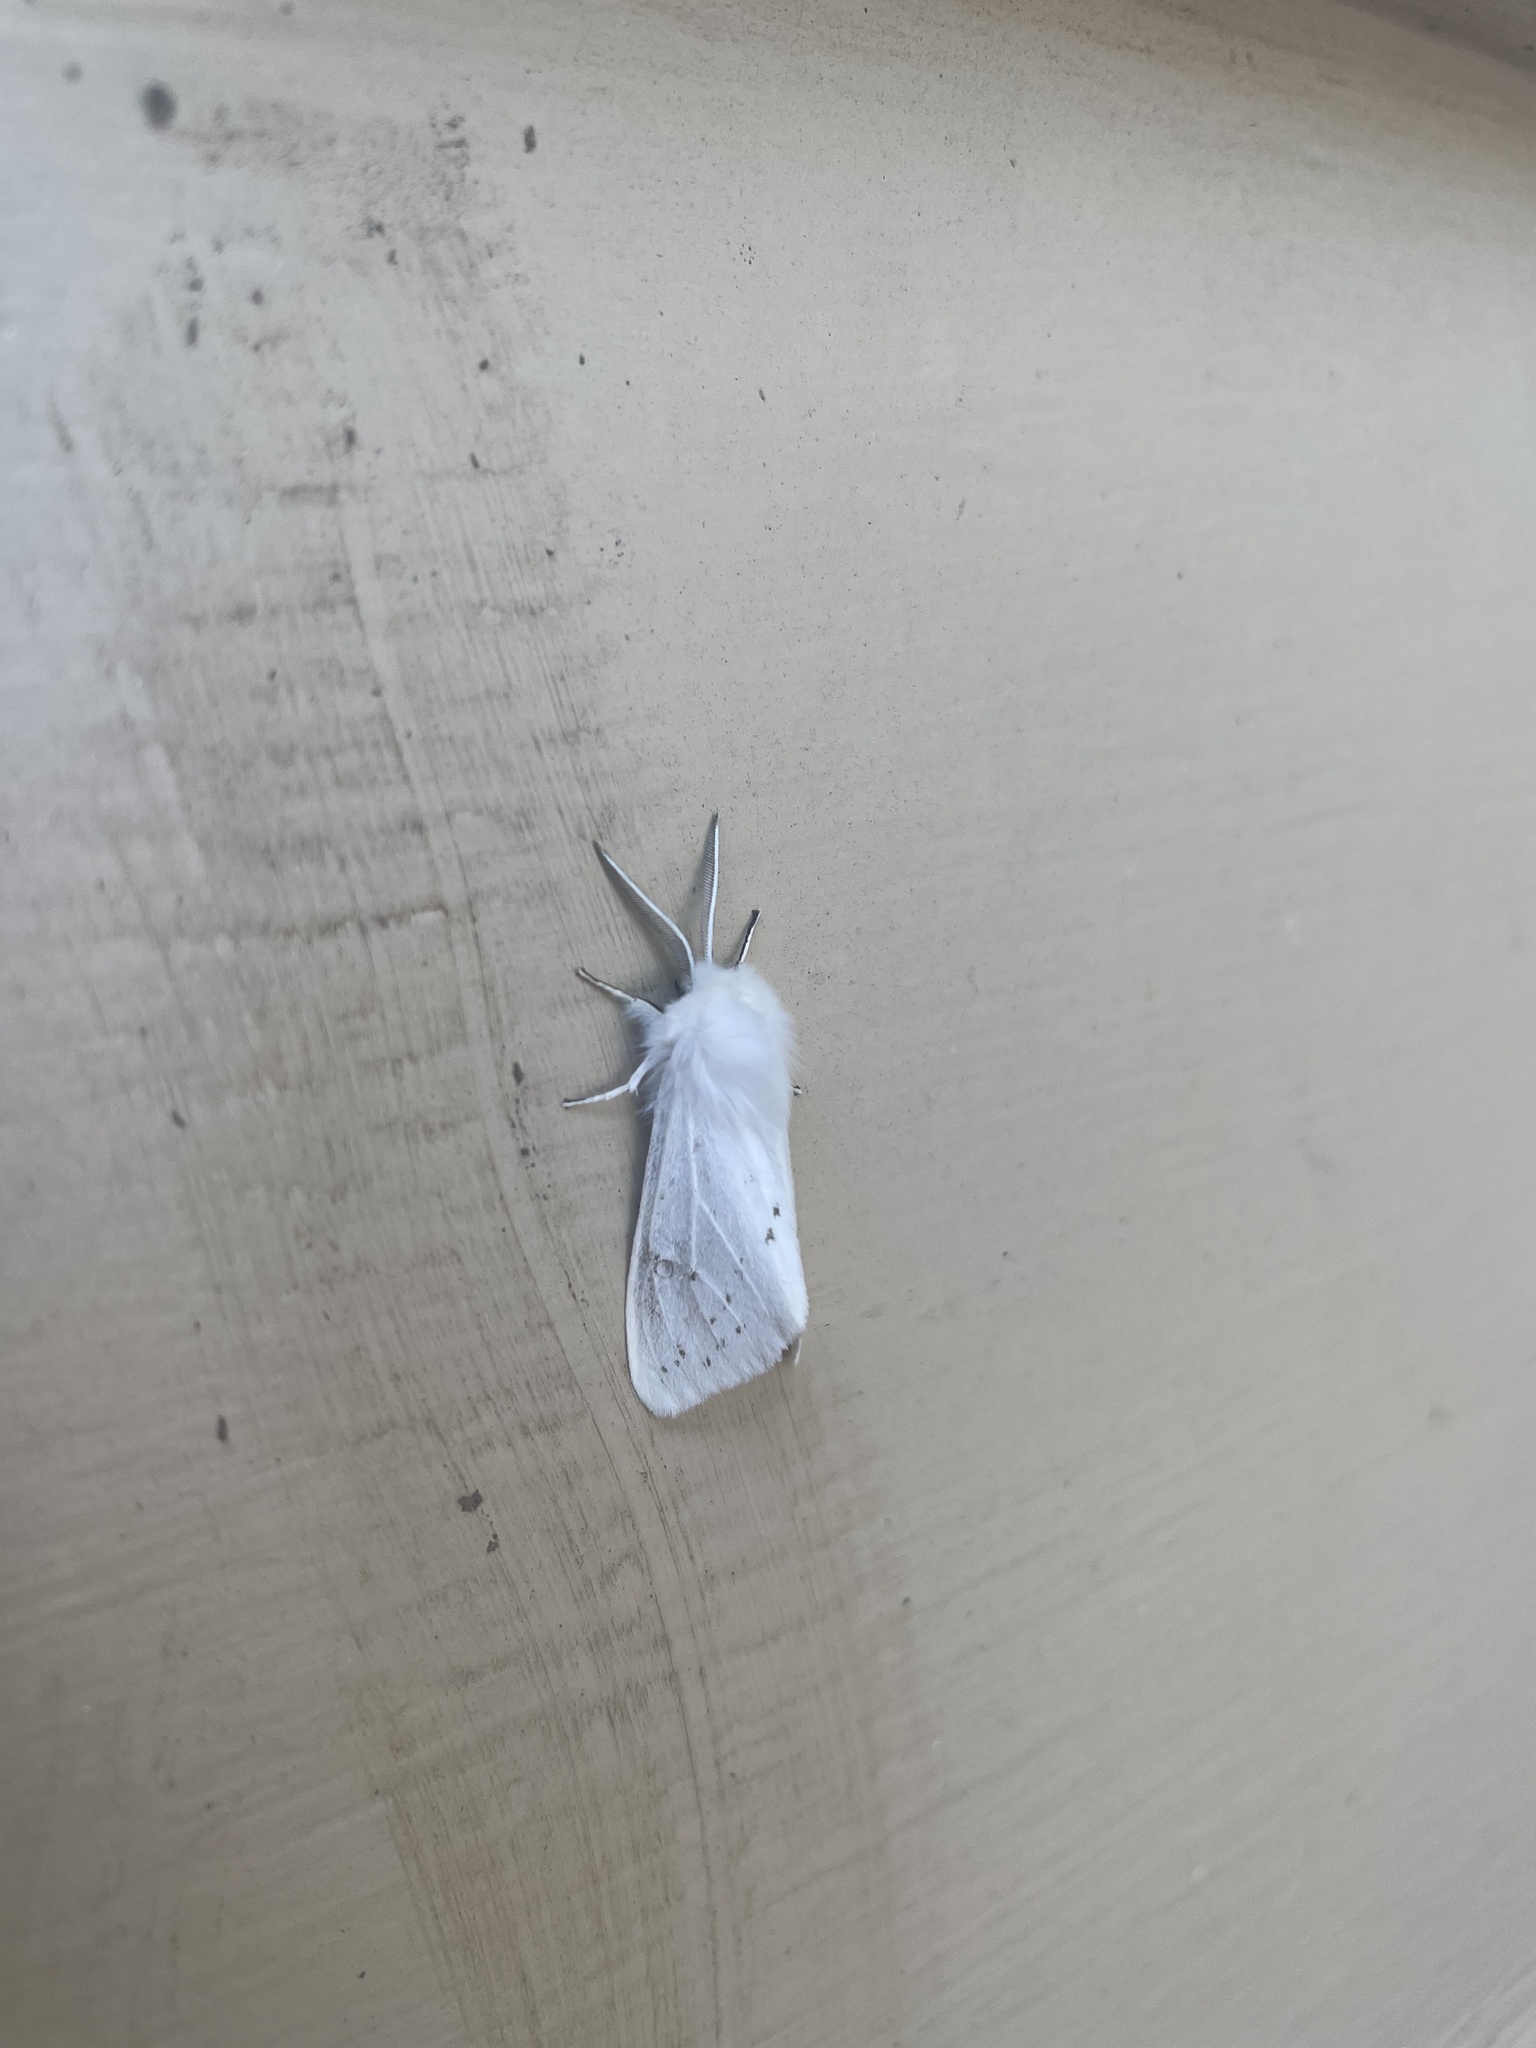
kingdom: Animalia
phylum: Arthropoda
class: Insecta
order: Lepidoptera
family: Erebidae
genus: Spilosoma
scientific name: Spilosoma congrua
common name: Agreeable tiger moth
